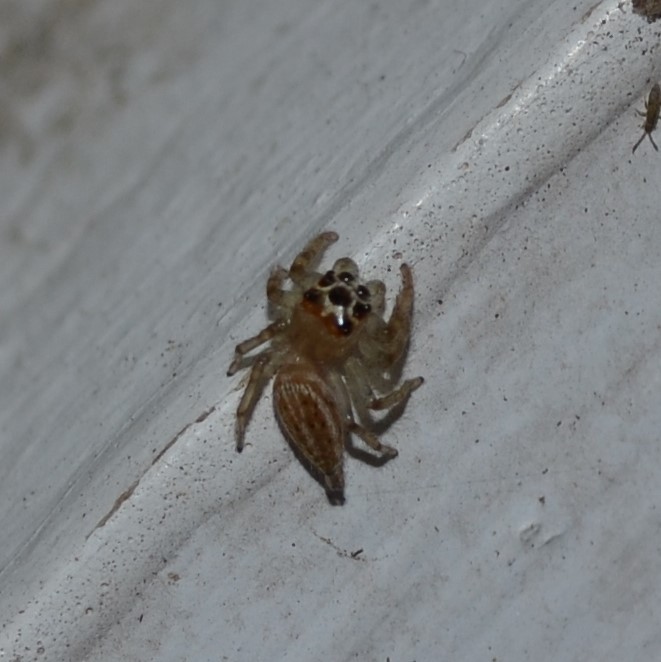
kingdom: Animalia
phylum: Arthropoda
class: Arachnida
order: Araneae
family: Salticidae
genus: Colonus
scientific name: Colonus sylvanus
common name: Jumping spiders
